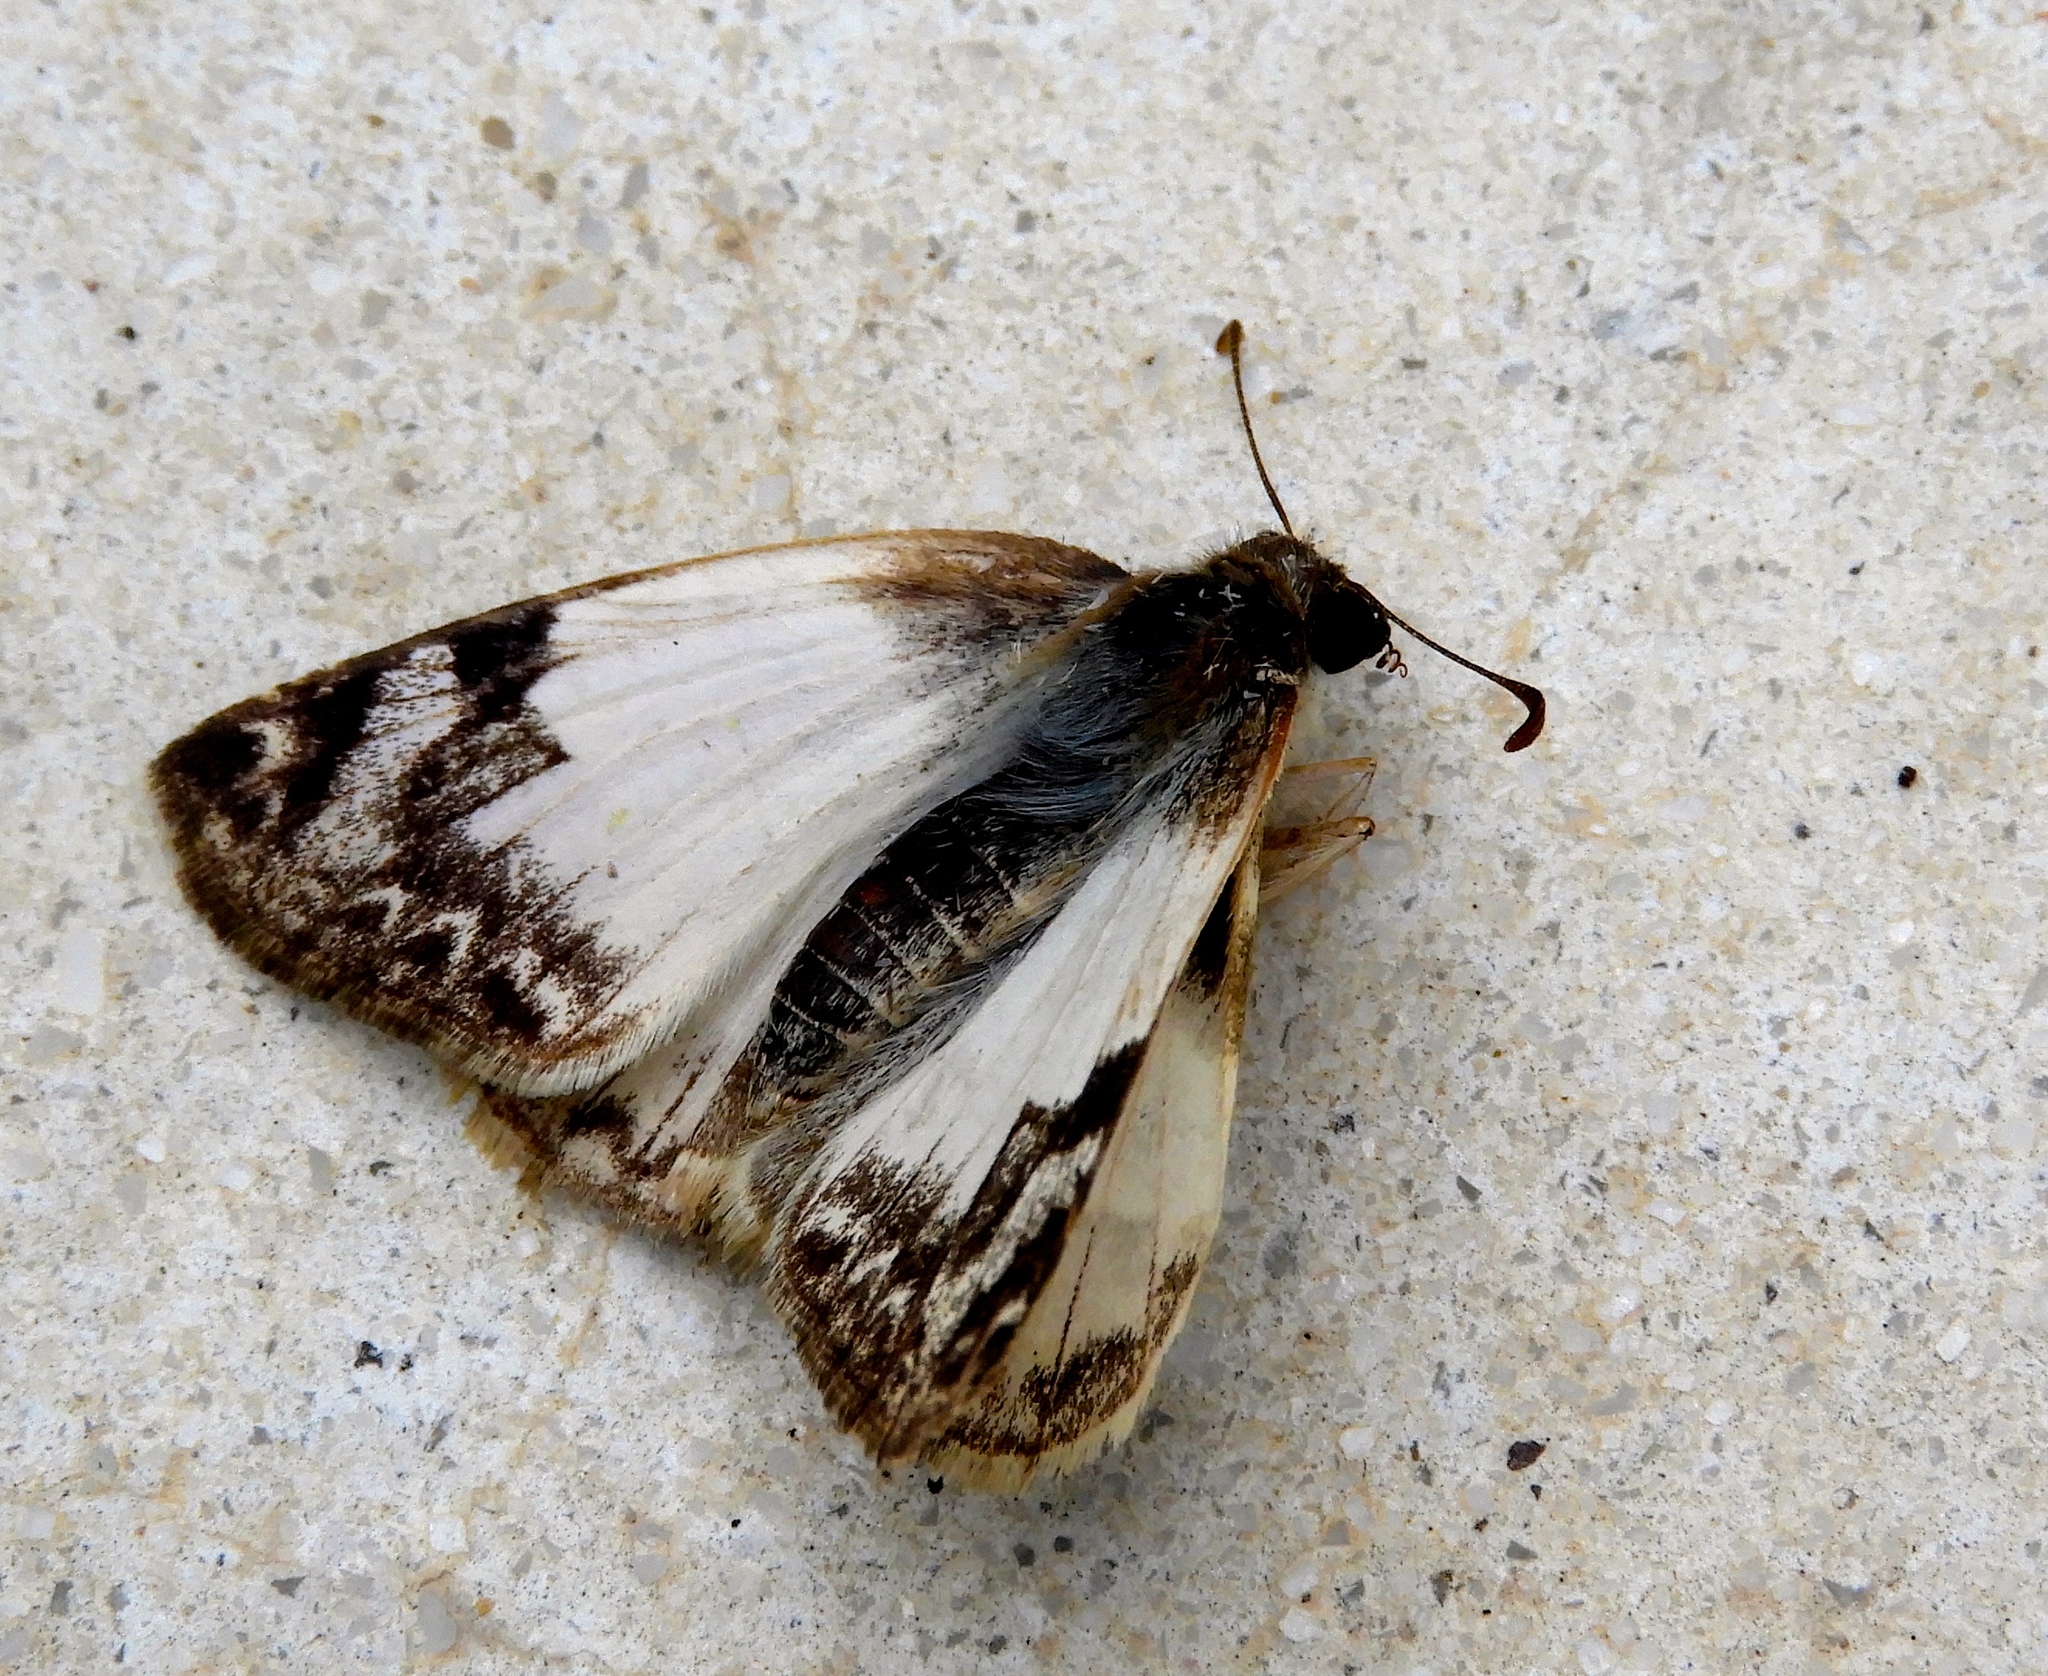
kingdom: Animalia
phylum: Arthropoda
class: Insecta
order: Lepidoptera
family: Hesperiidae
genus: Heliopetes
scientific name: Heliopetes laviana
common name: Laviana white-skipper
